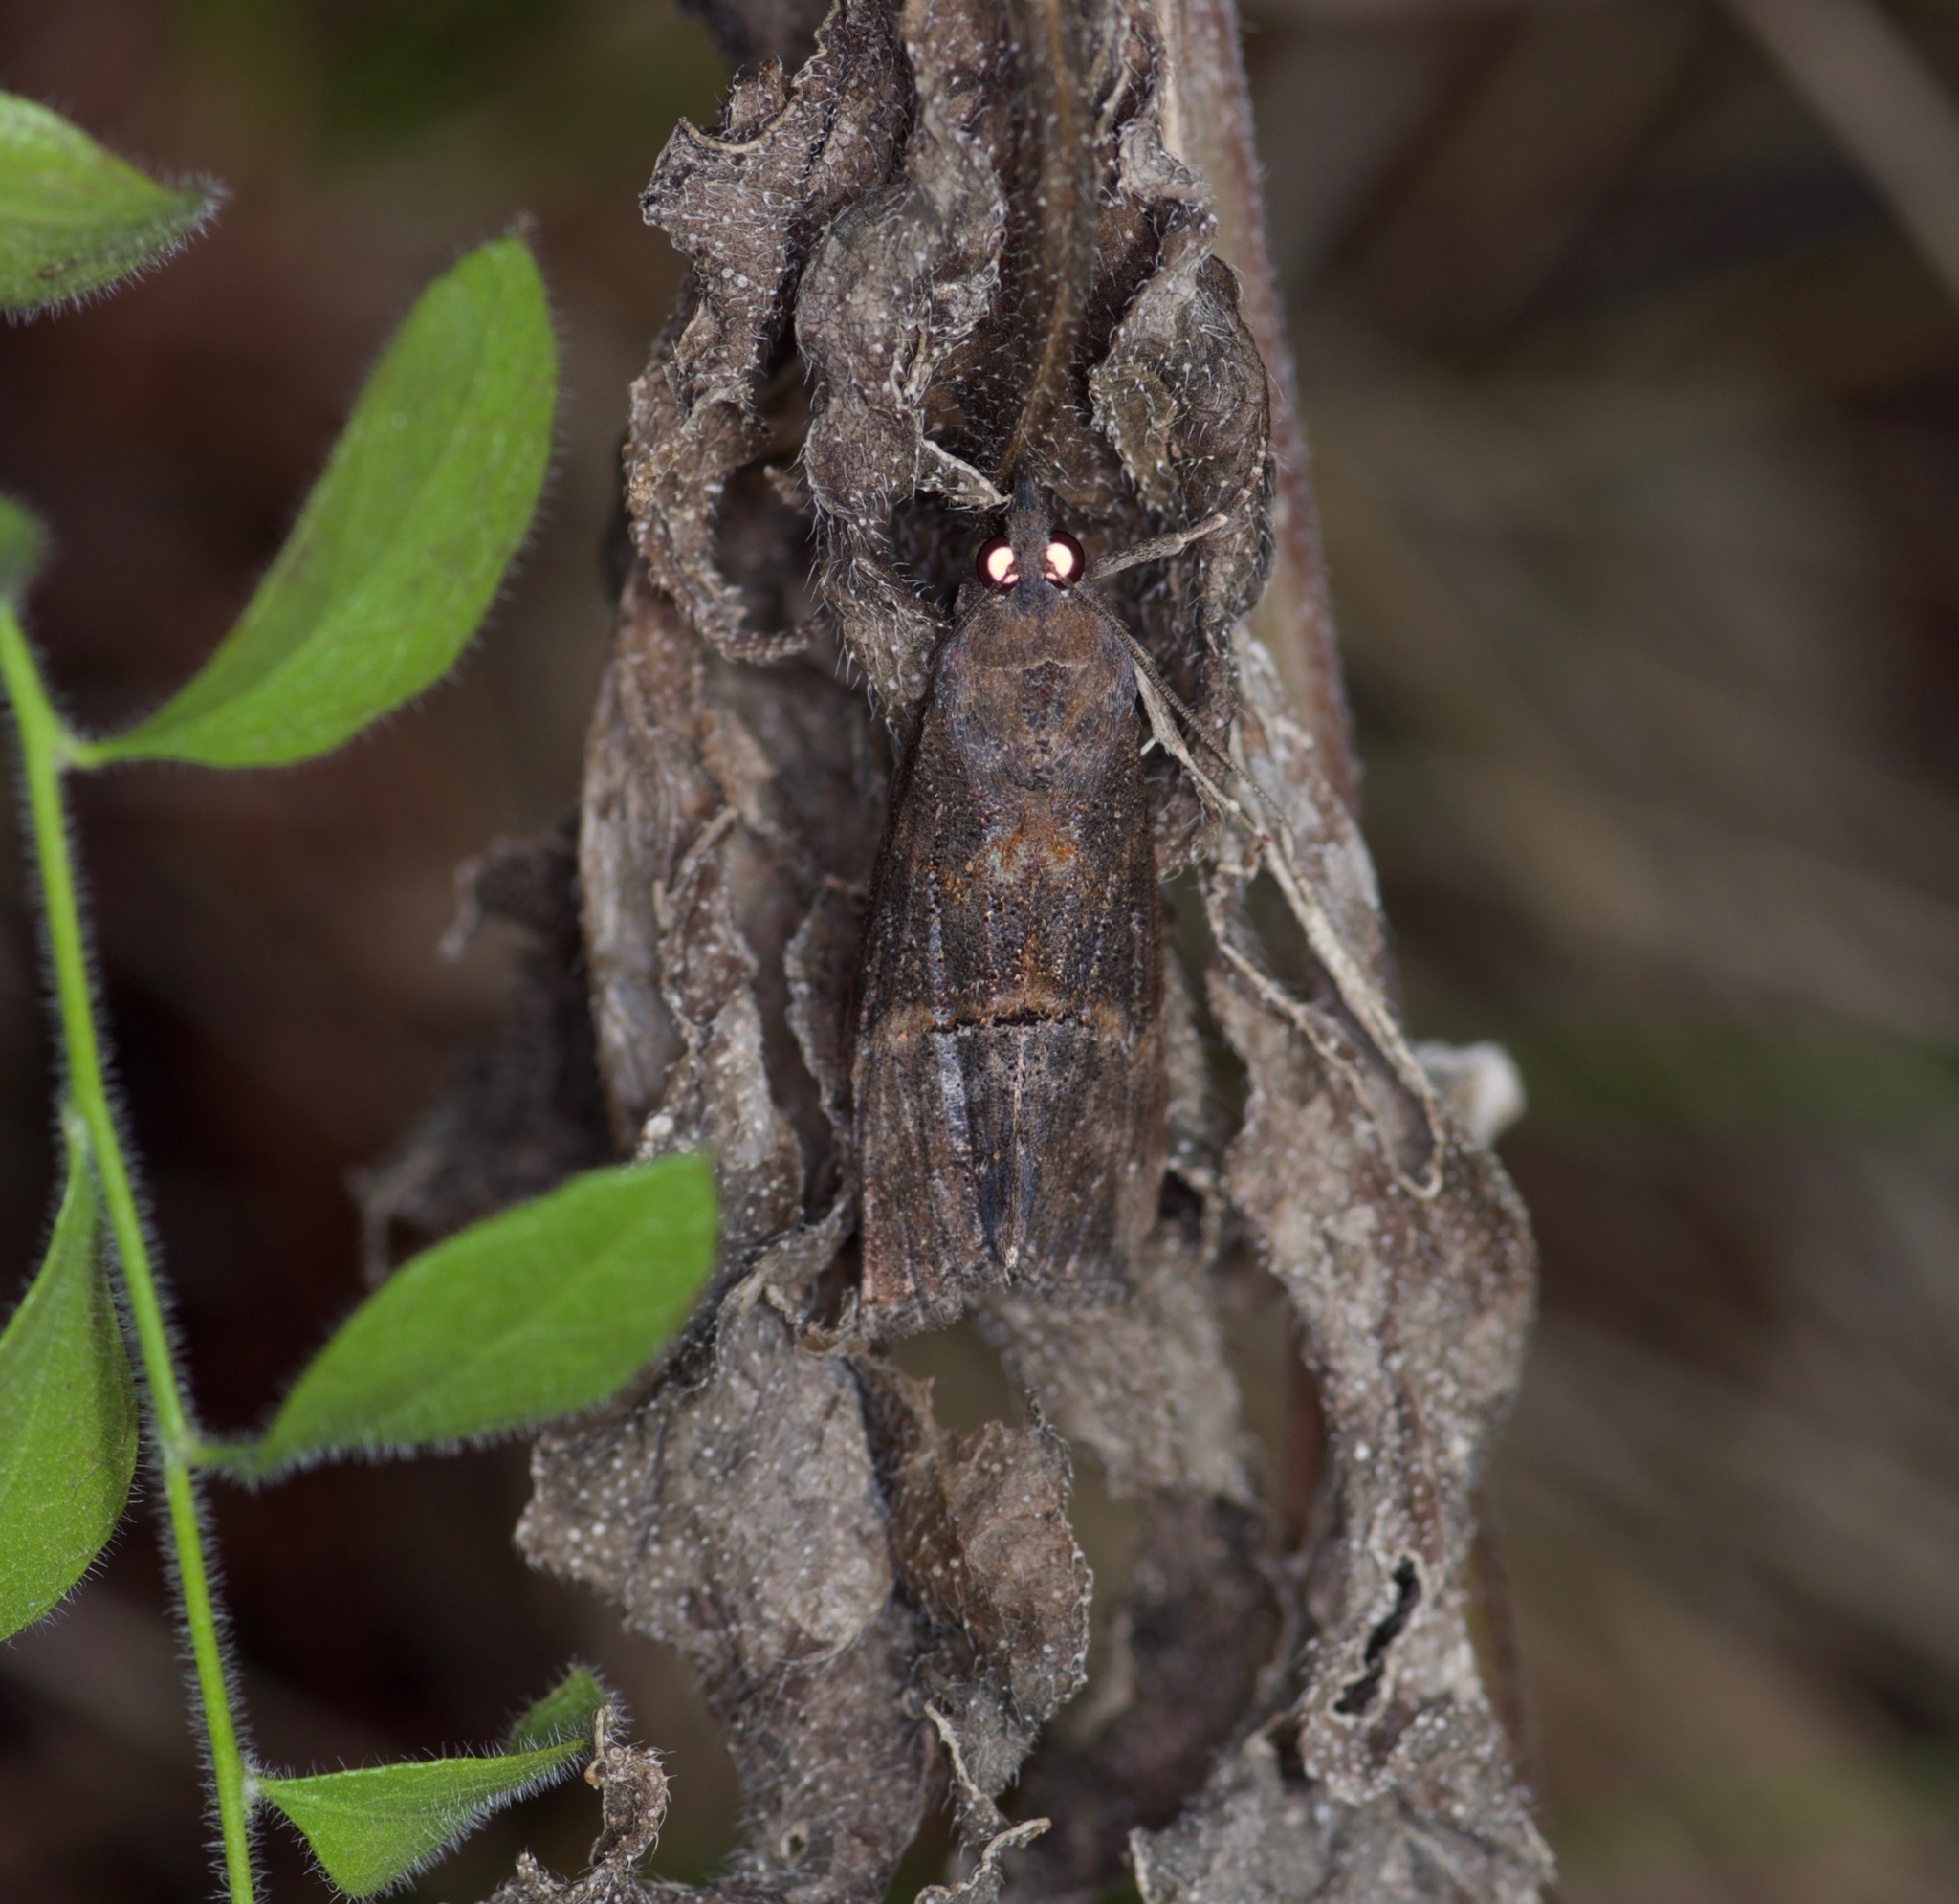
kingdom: Animalia
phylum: Arthropoda
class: Insecta
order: Lepidoptera
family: Erebidae
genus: Hypena
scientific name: Hypena scabra
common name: Green cloverworm
